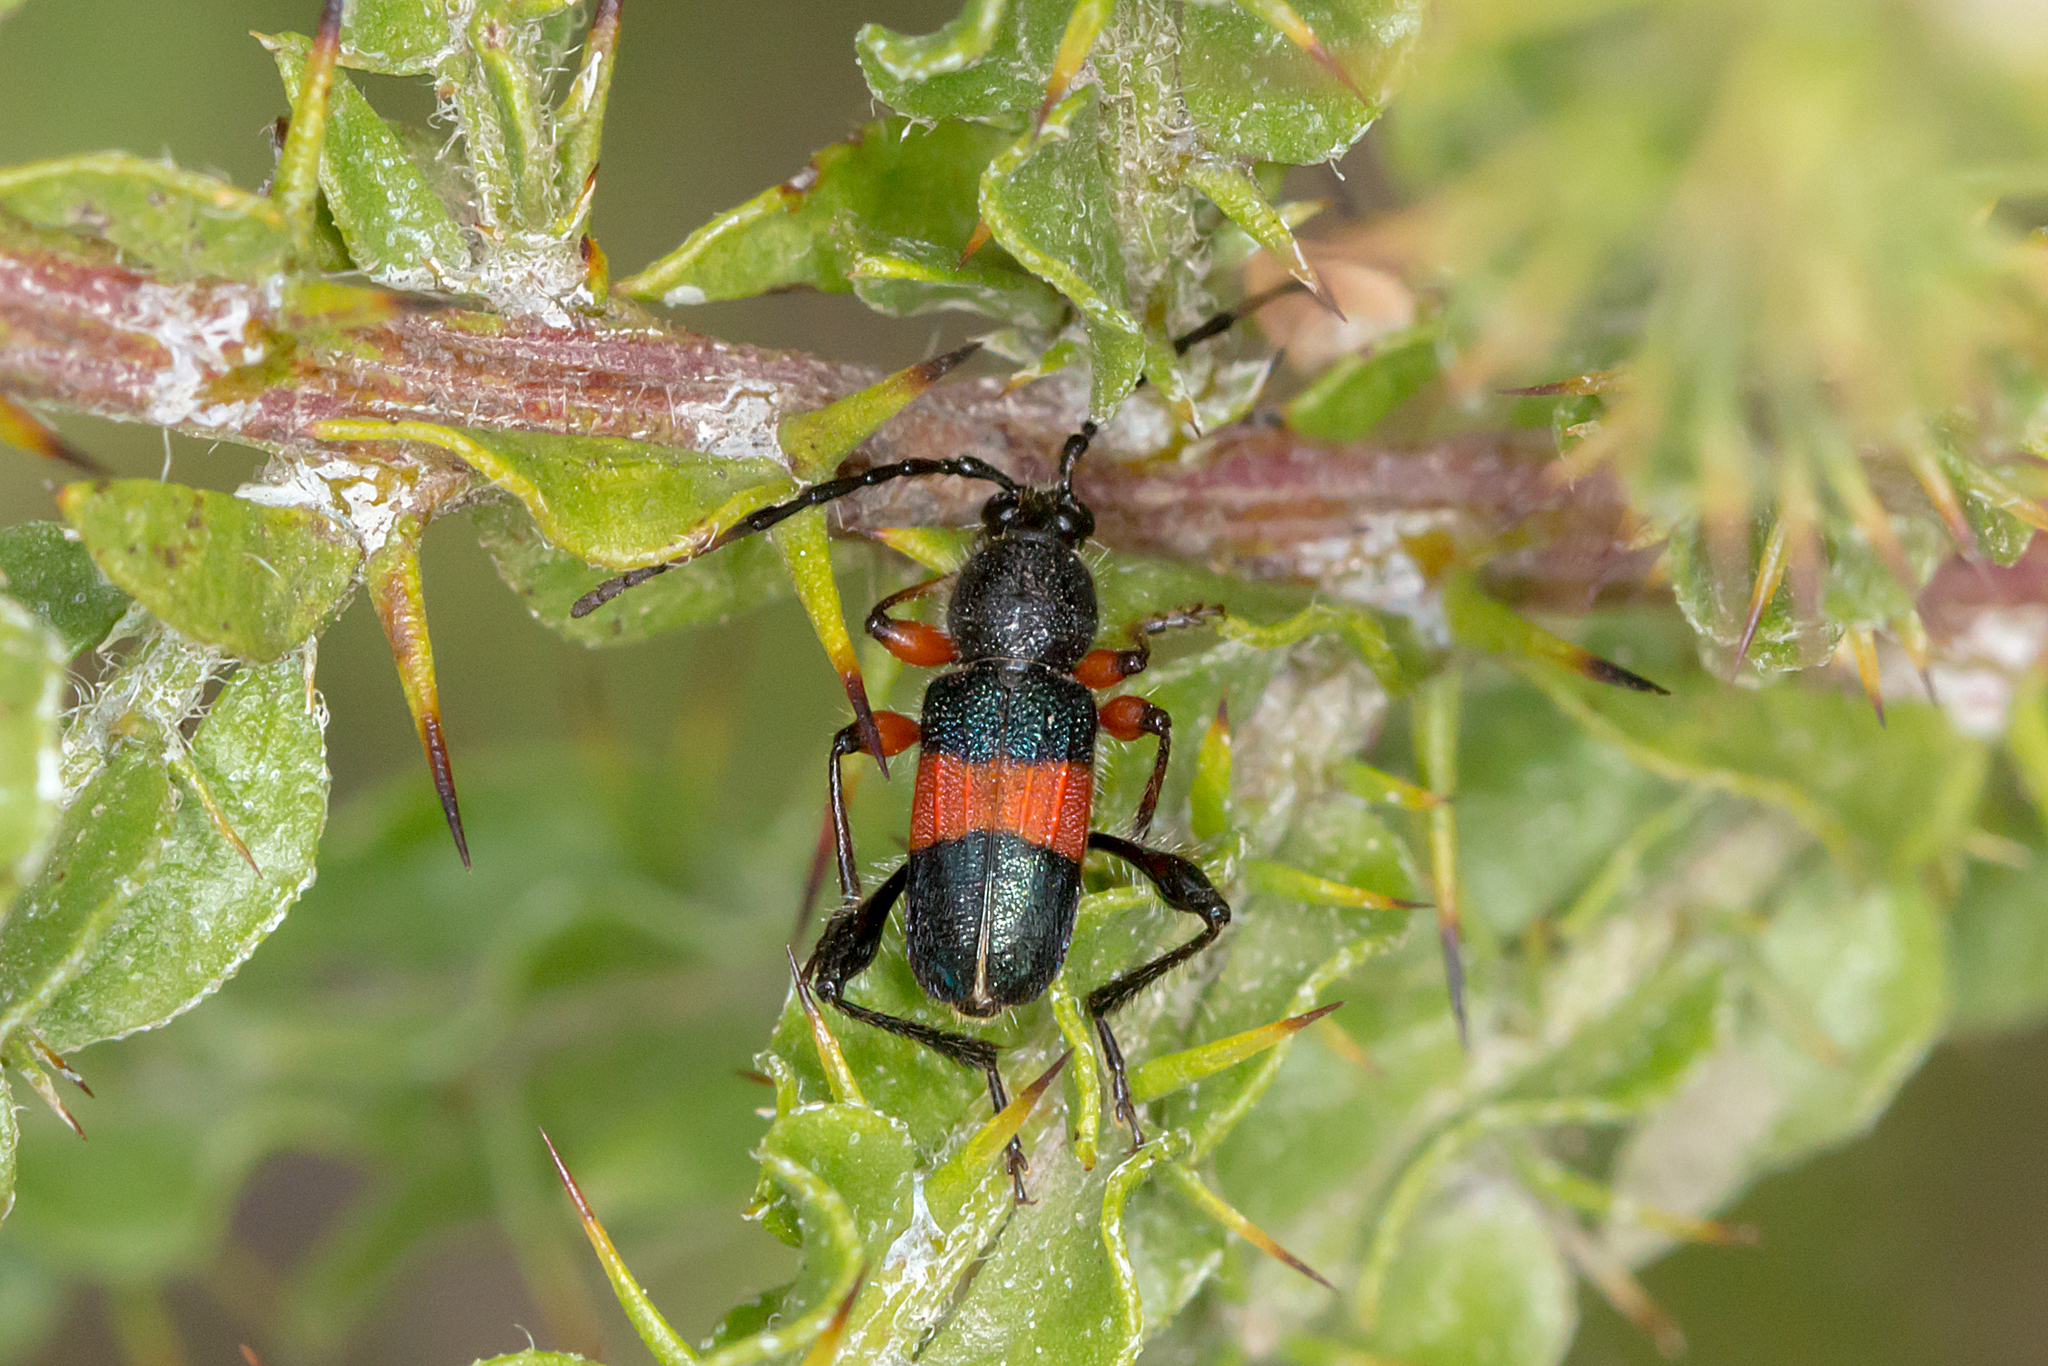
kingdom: Animalia
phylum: Arthropoda
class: Insecta
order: Coleoptera
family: Cerambycidae
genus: Obrida
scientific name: Obrida fascialis
